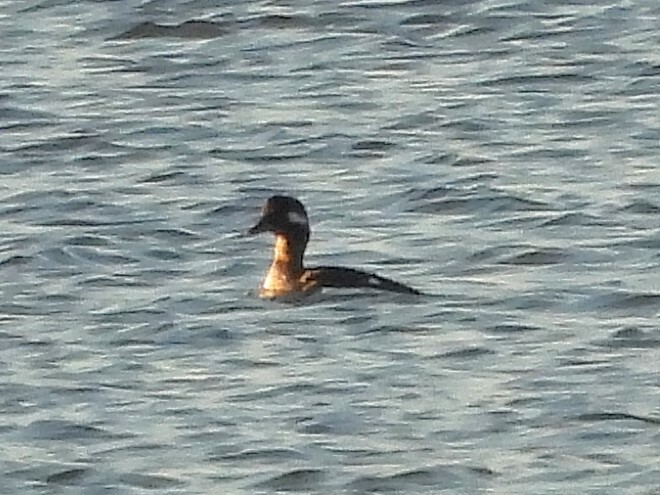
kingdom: Animalia
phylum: Chordata
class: Aves
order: Anseriformes
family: Anatidae
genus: Bucephala
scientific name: Bucephala albeola
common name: Bufflehead
